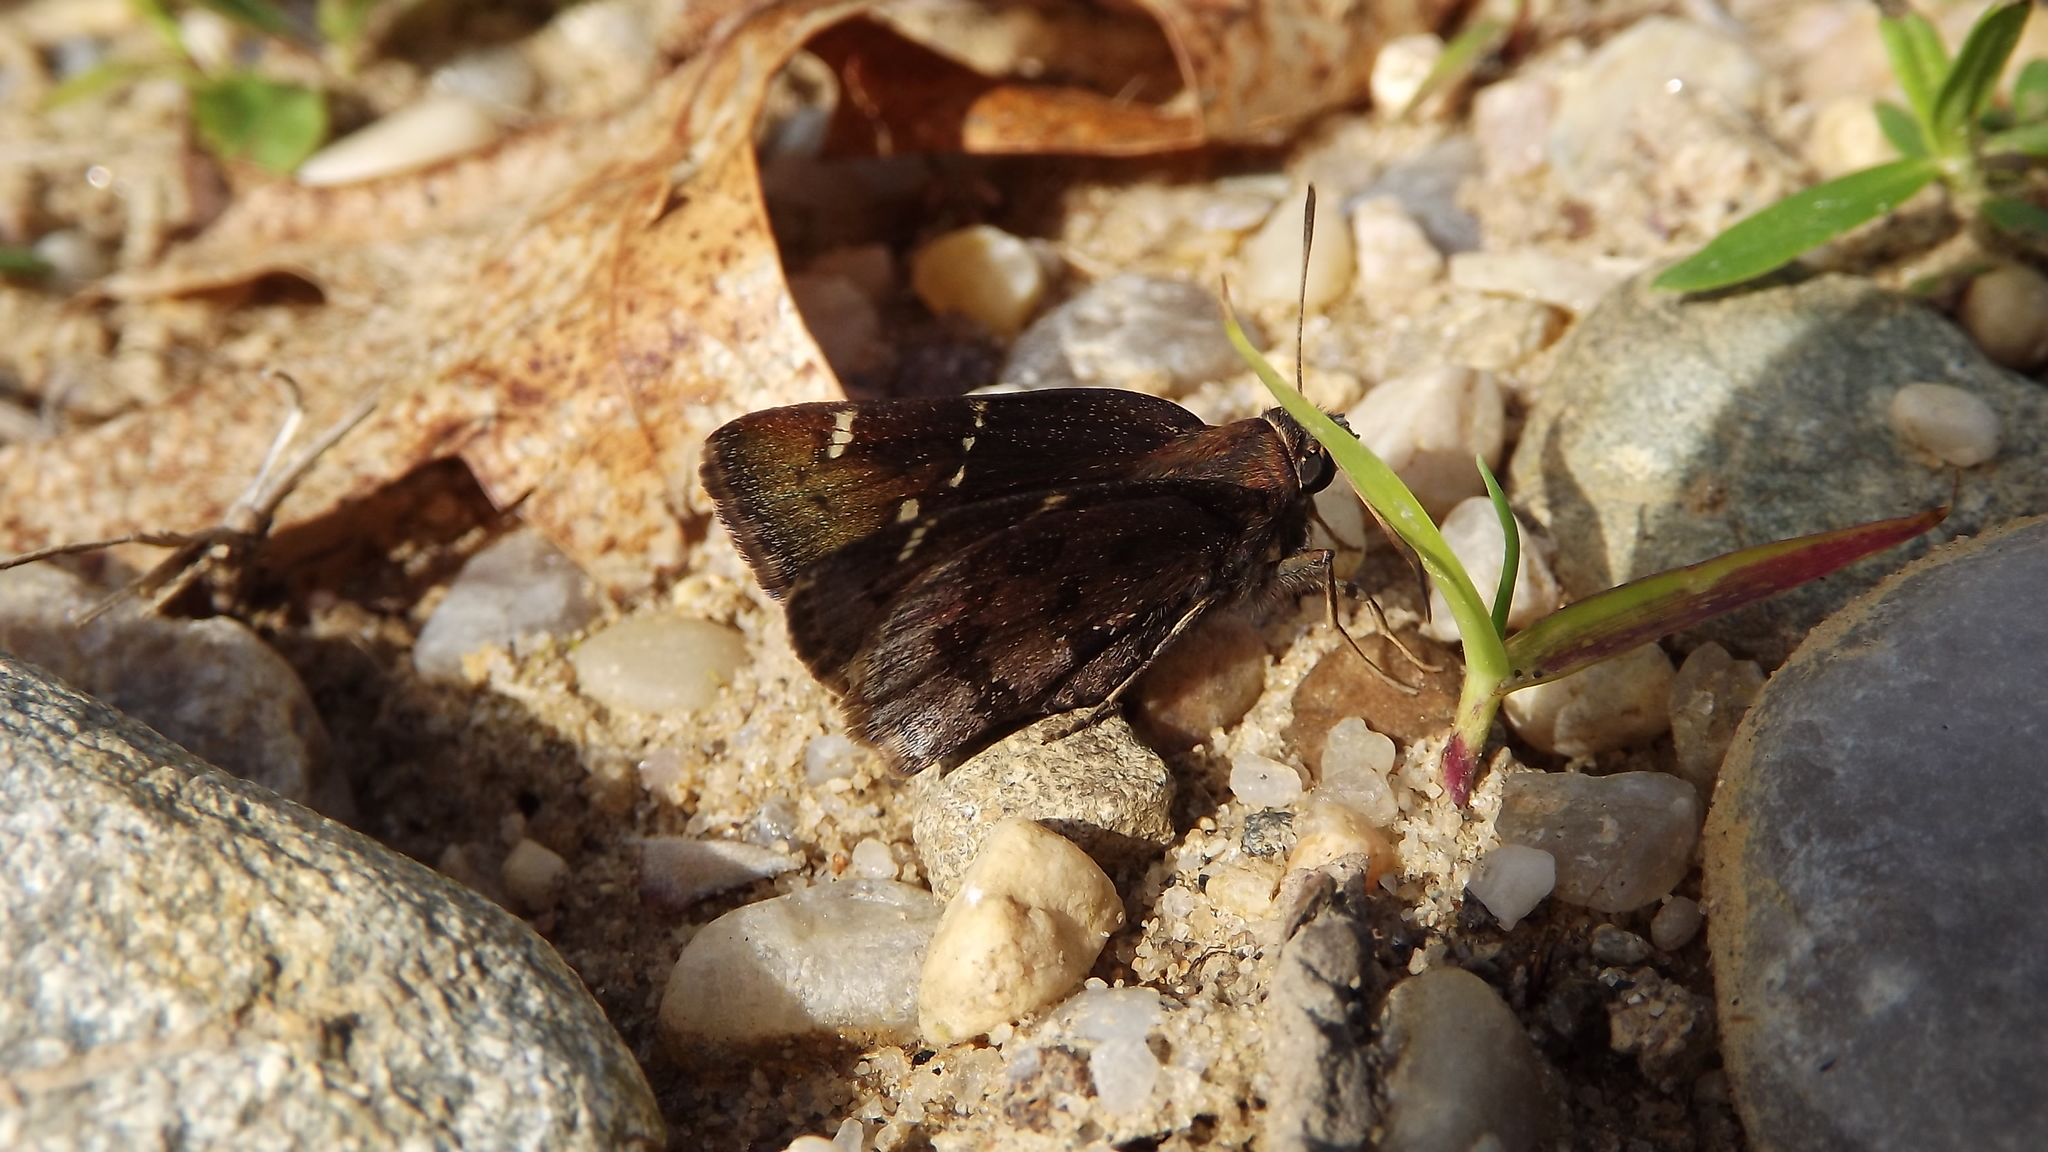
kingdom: Animalia
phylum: Arthropoda
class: Insecta
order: Lepidoptera
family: Hesperiidae
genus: Thorybes
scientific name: Thorybes pylades
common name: Northern cloudywing
